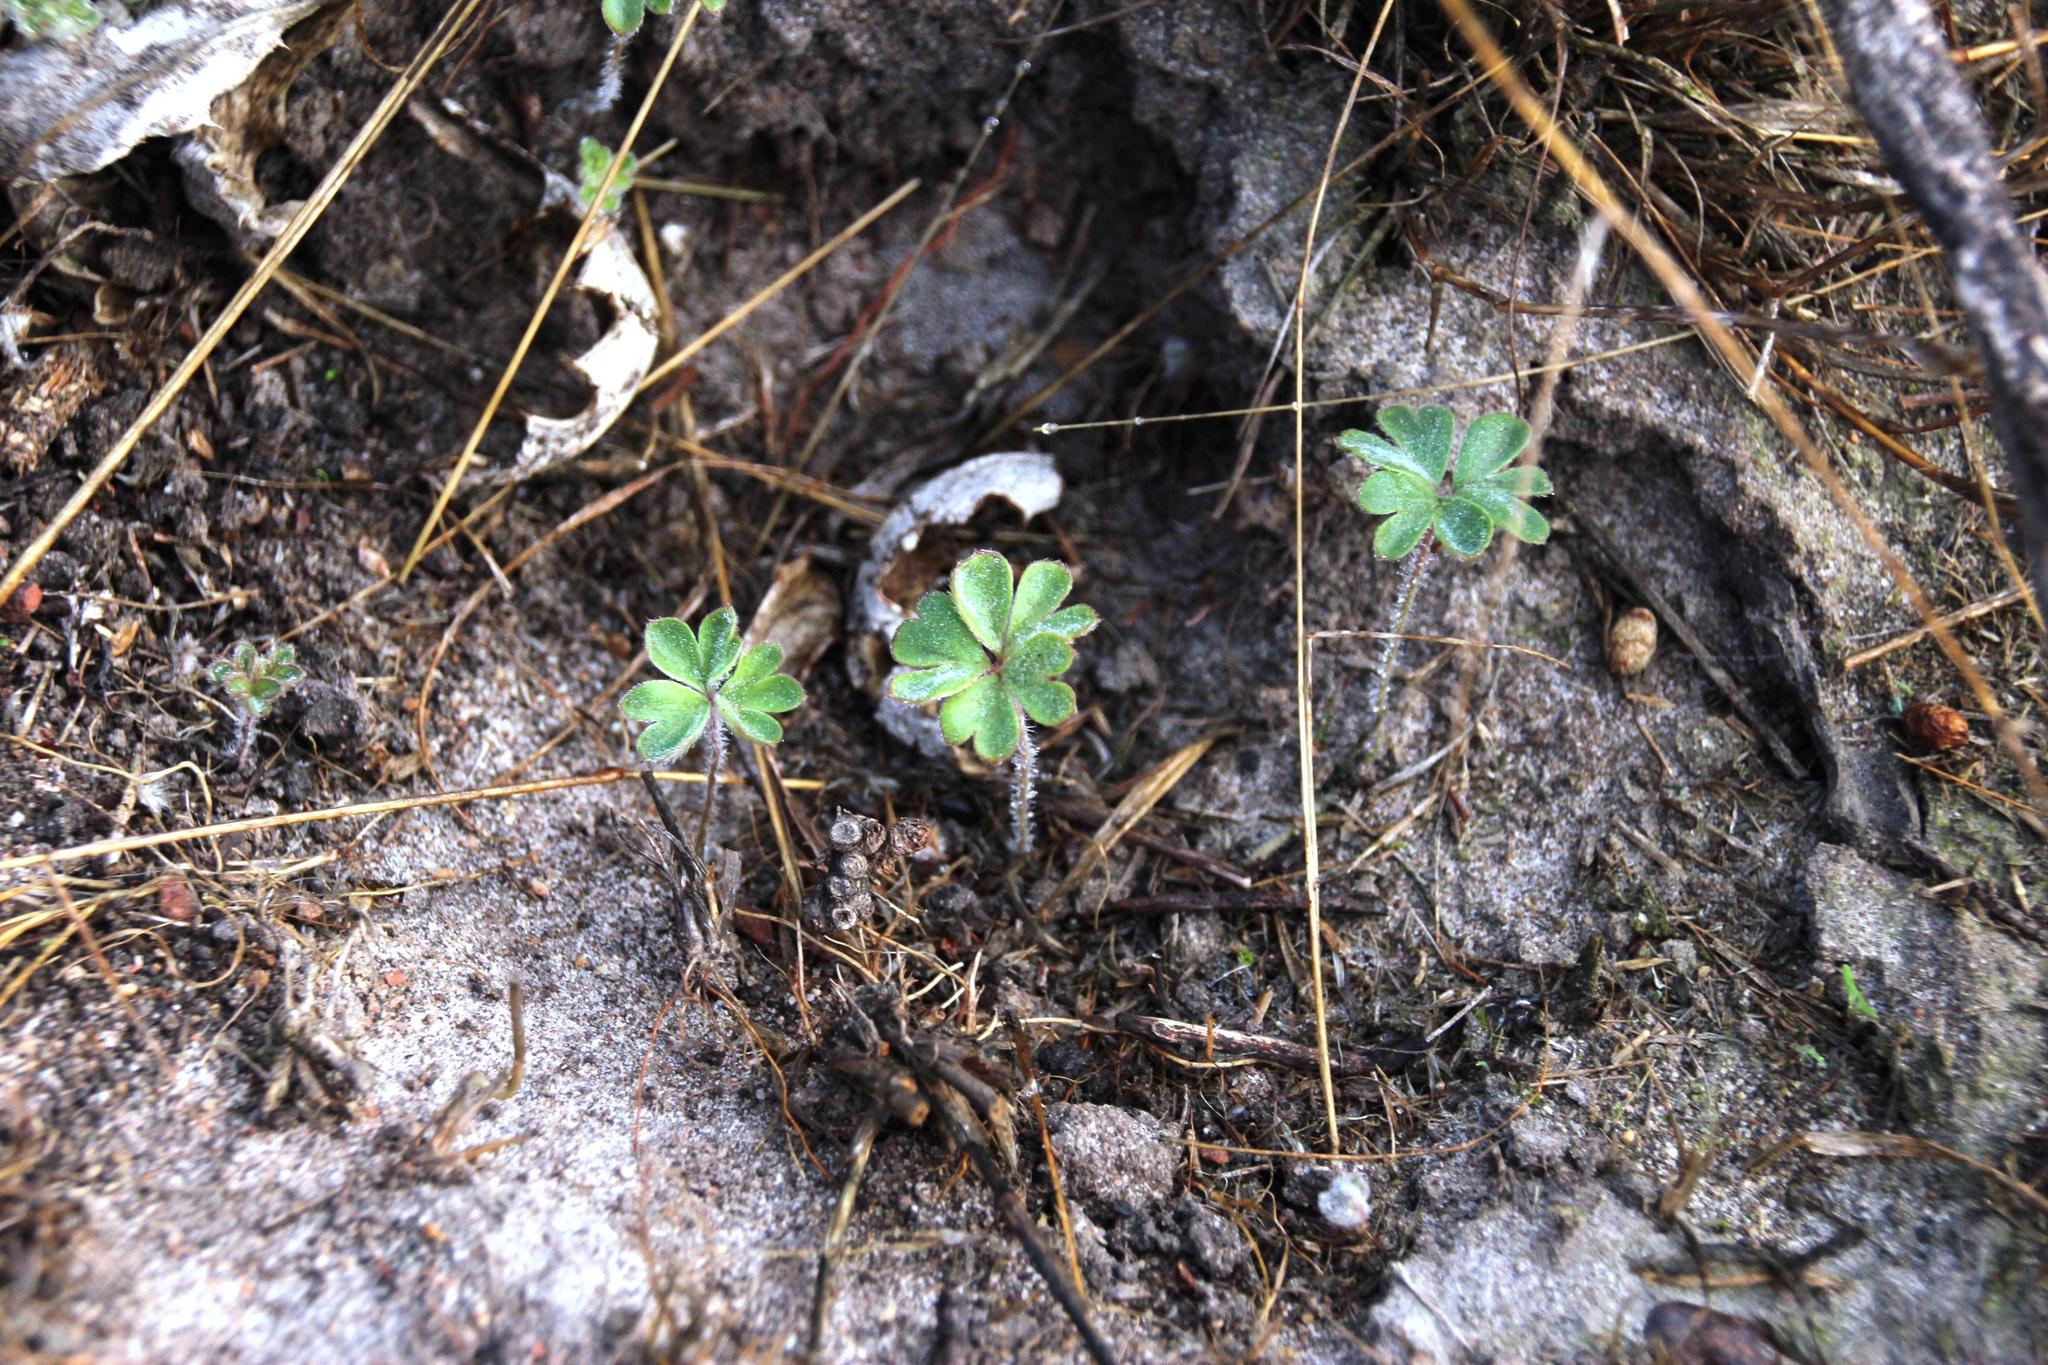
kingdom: Plantae
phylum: Tracheophyta
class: Magnoliopsida
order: Geraniales
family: Geraniaceae
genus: Pelargonium
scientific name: Pelargonium ternifolium
